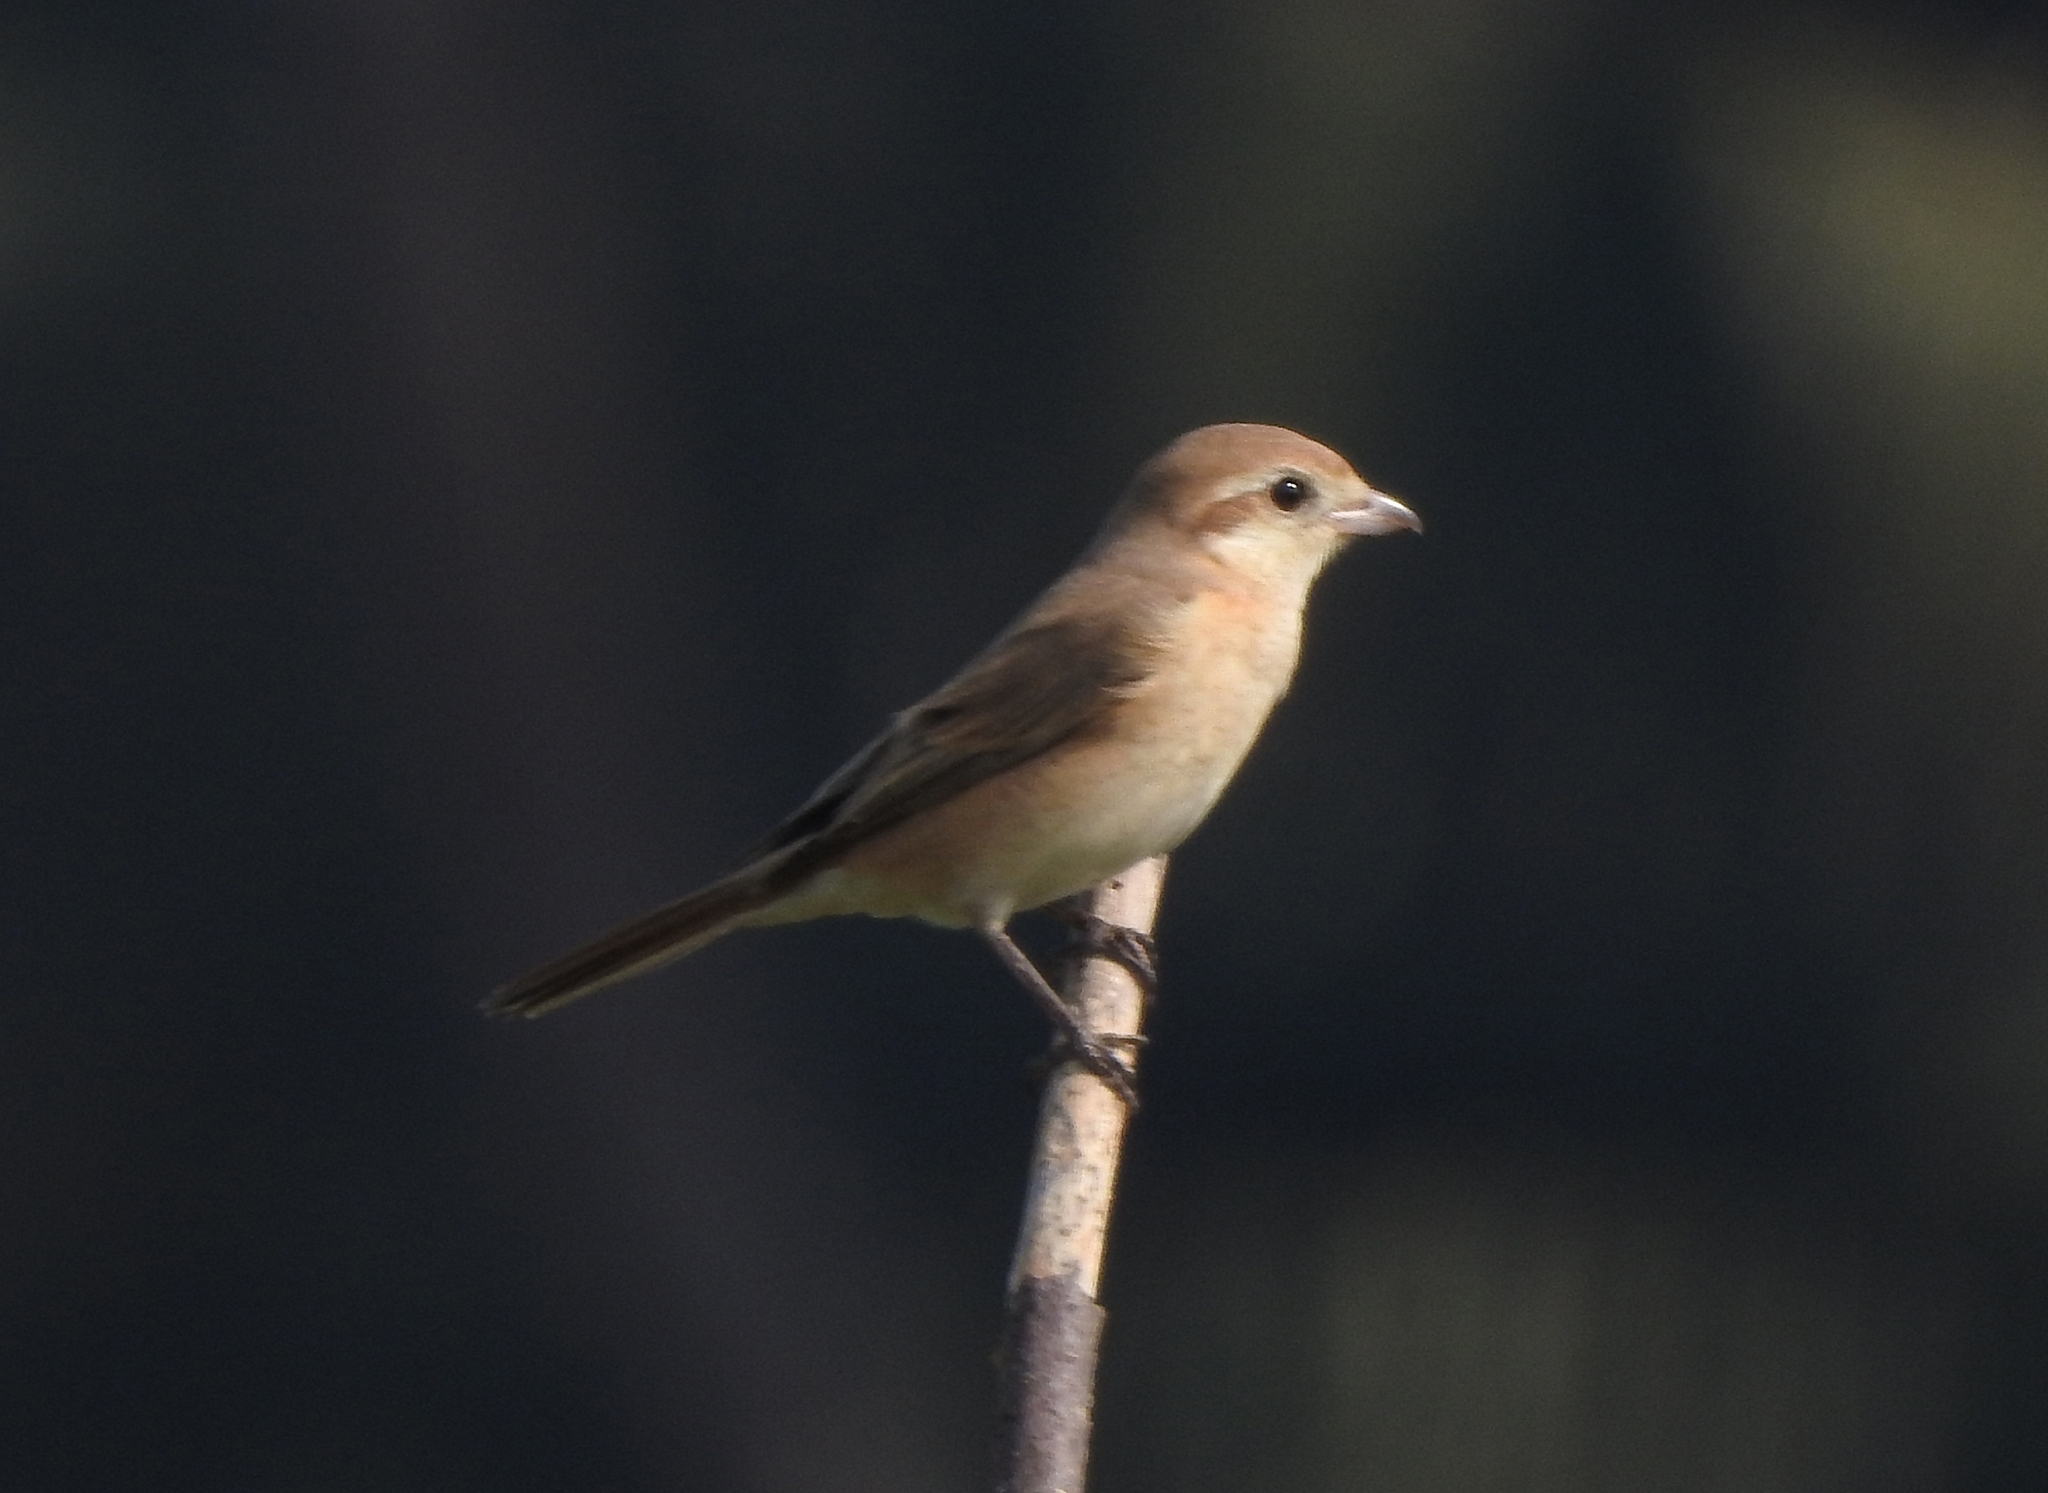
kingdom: Animalia
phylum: Chordata
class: Aves
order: Passeriformes
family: Laniidae
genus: Lanius
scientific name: Lanius cristatus
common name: Brown shrike
